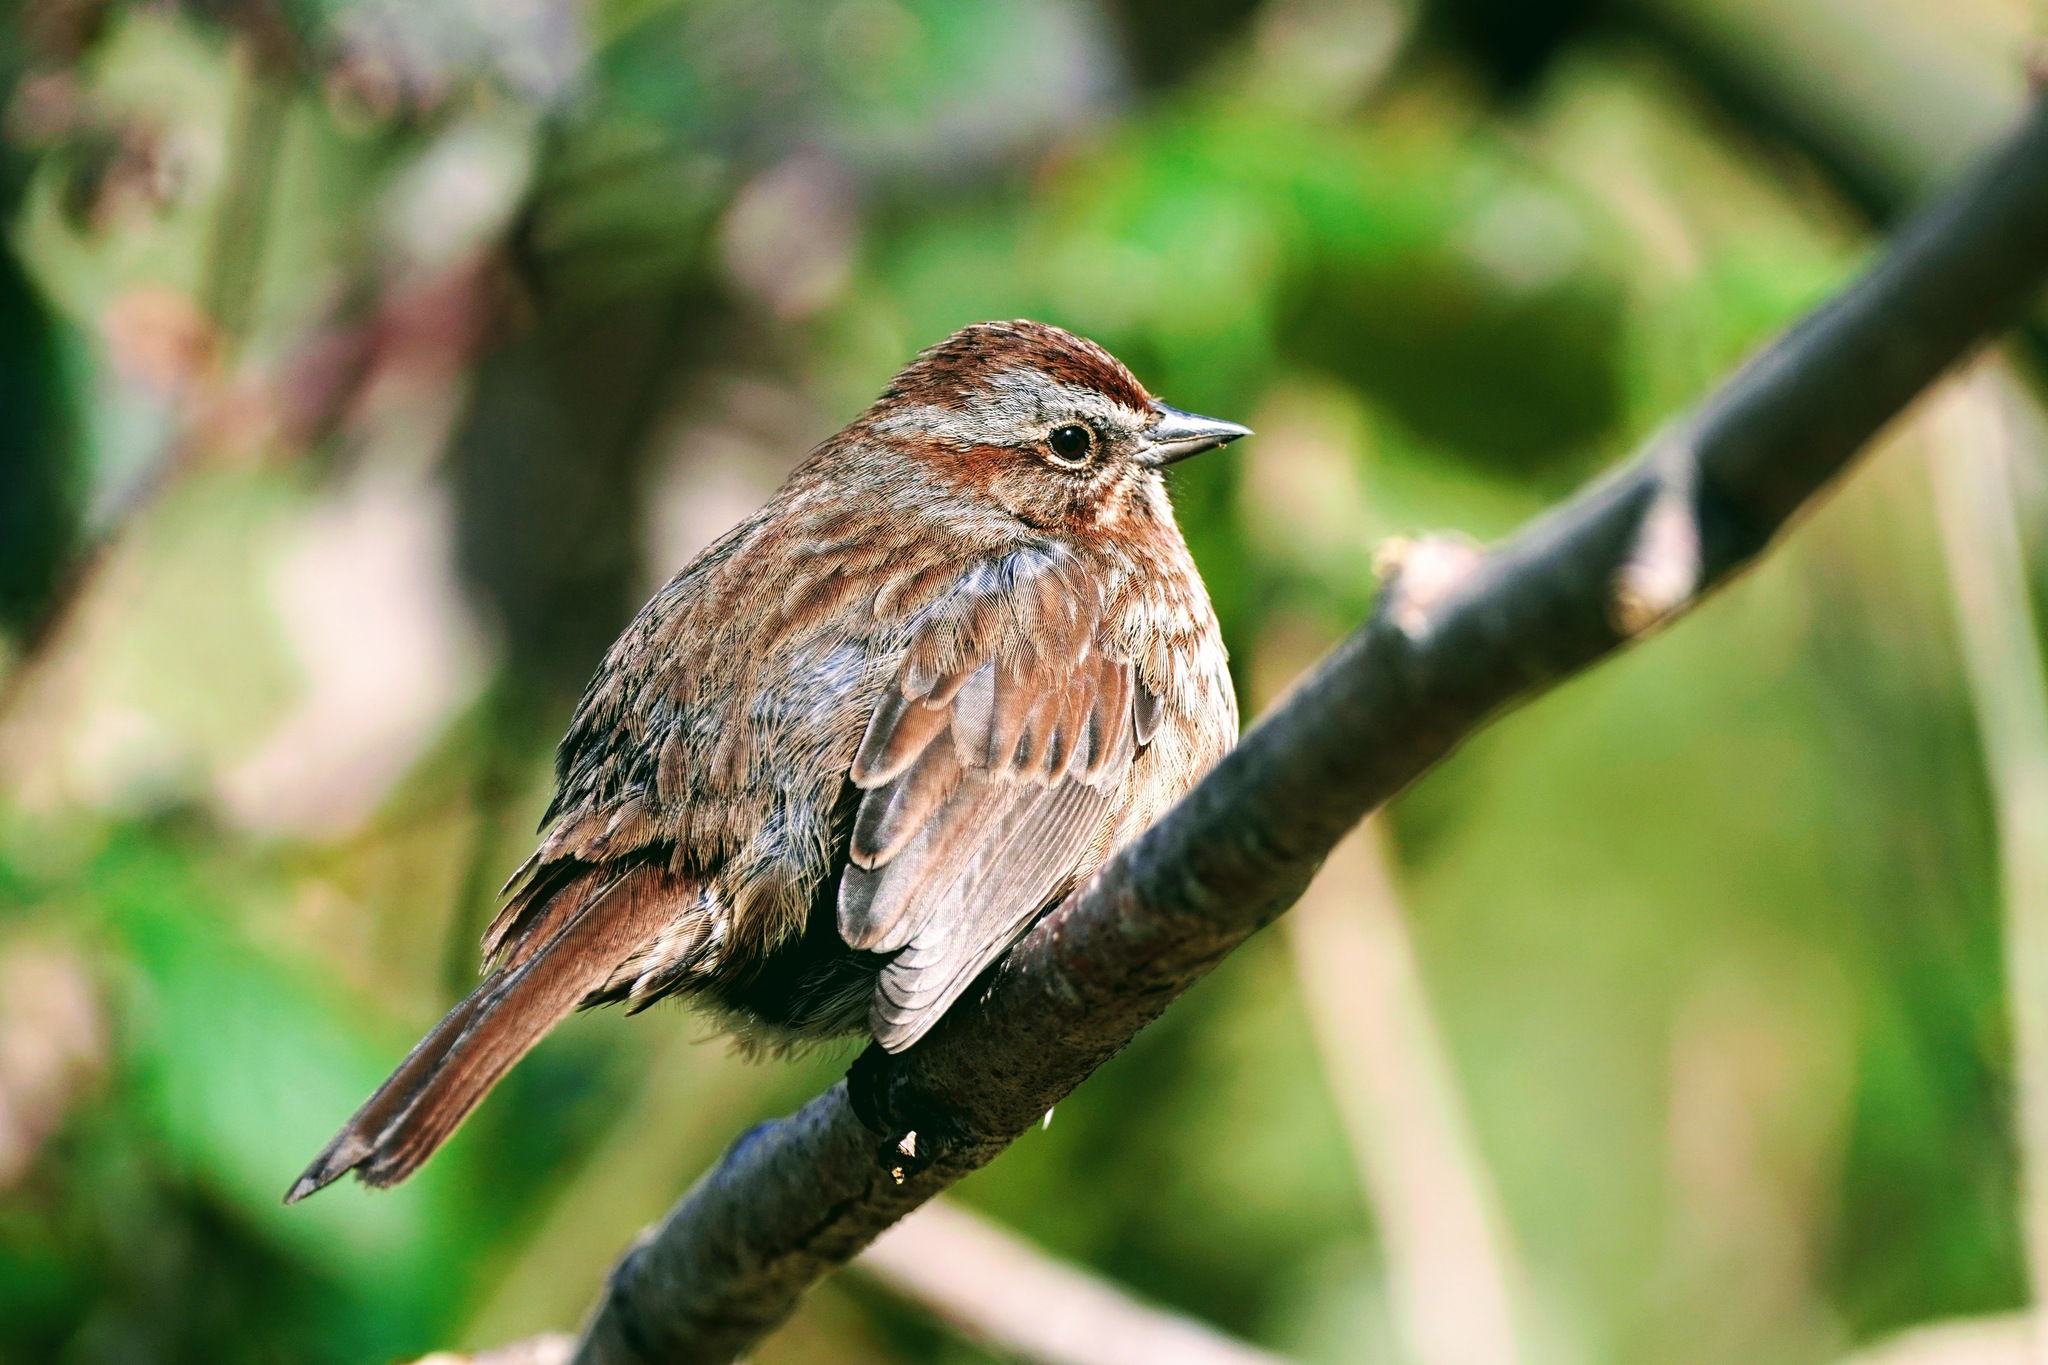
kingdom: Animalia
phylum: Chordata
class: Aves
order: Passeriformes
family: Passerellidae
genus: Melospiza
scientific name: Melospiza melodia
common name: Song sparrow
